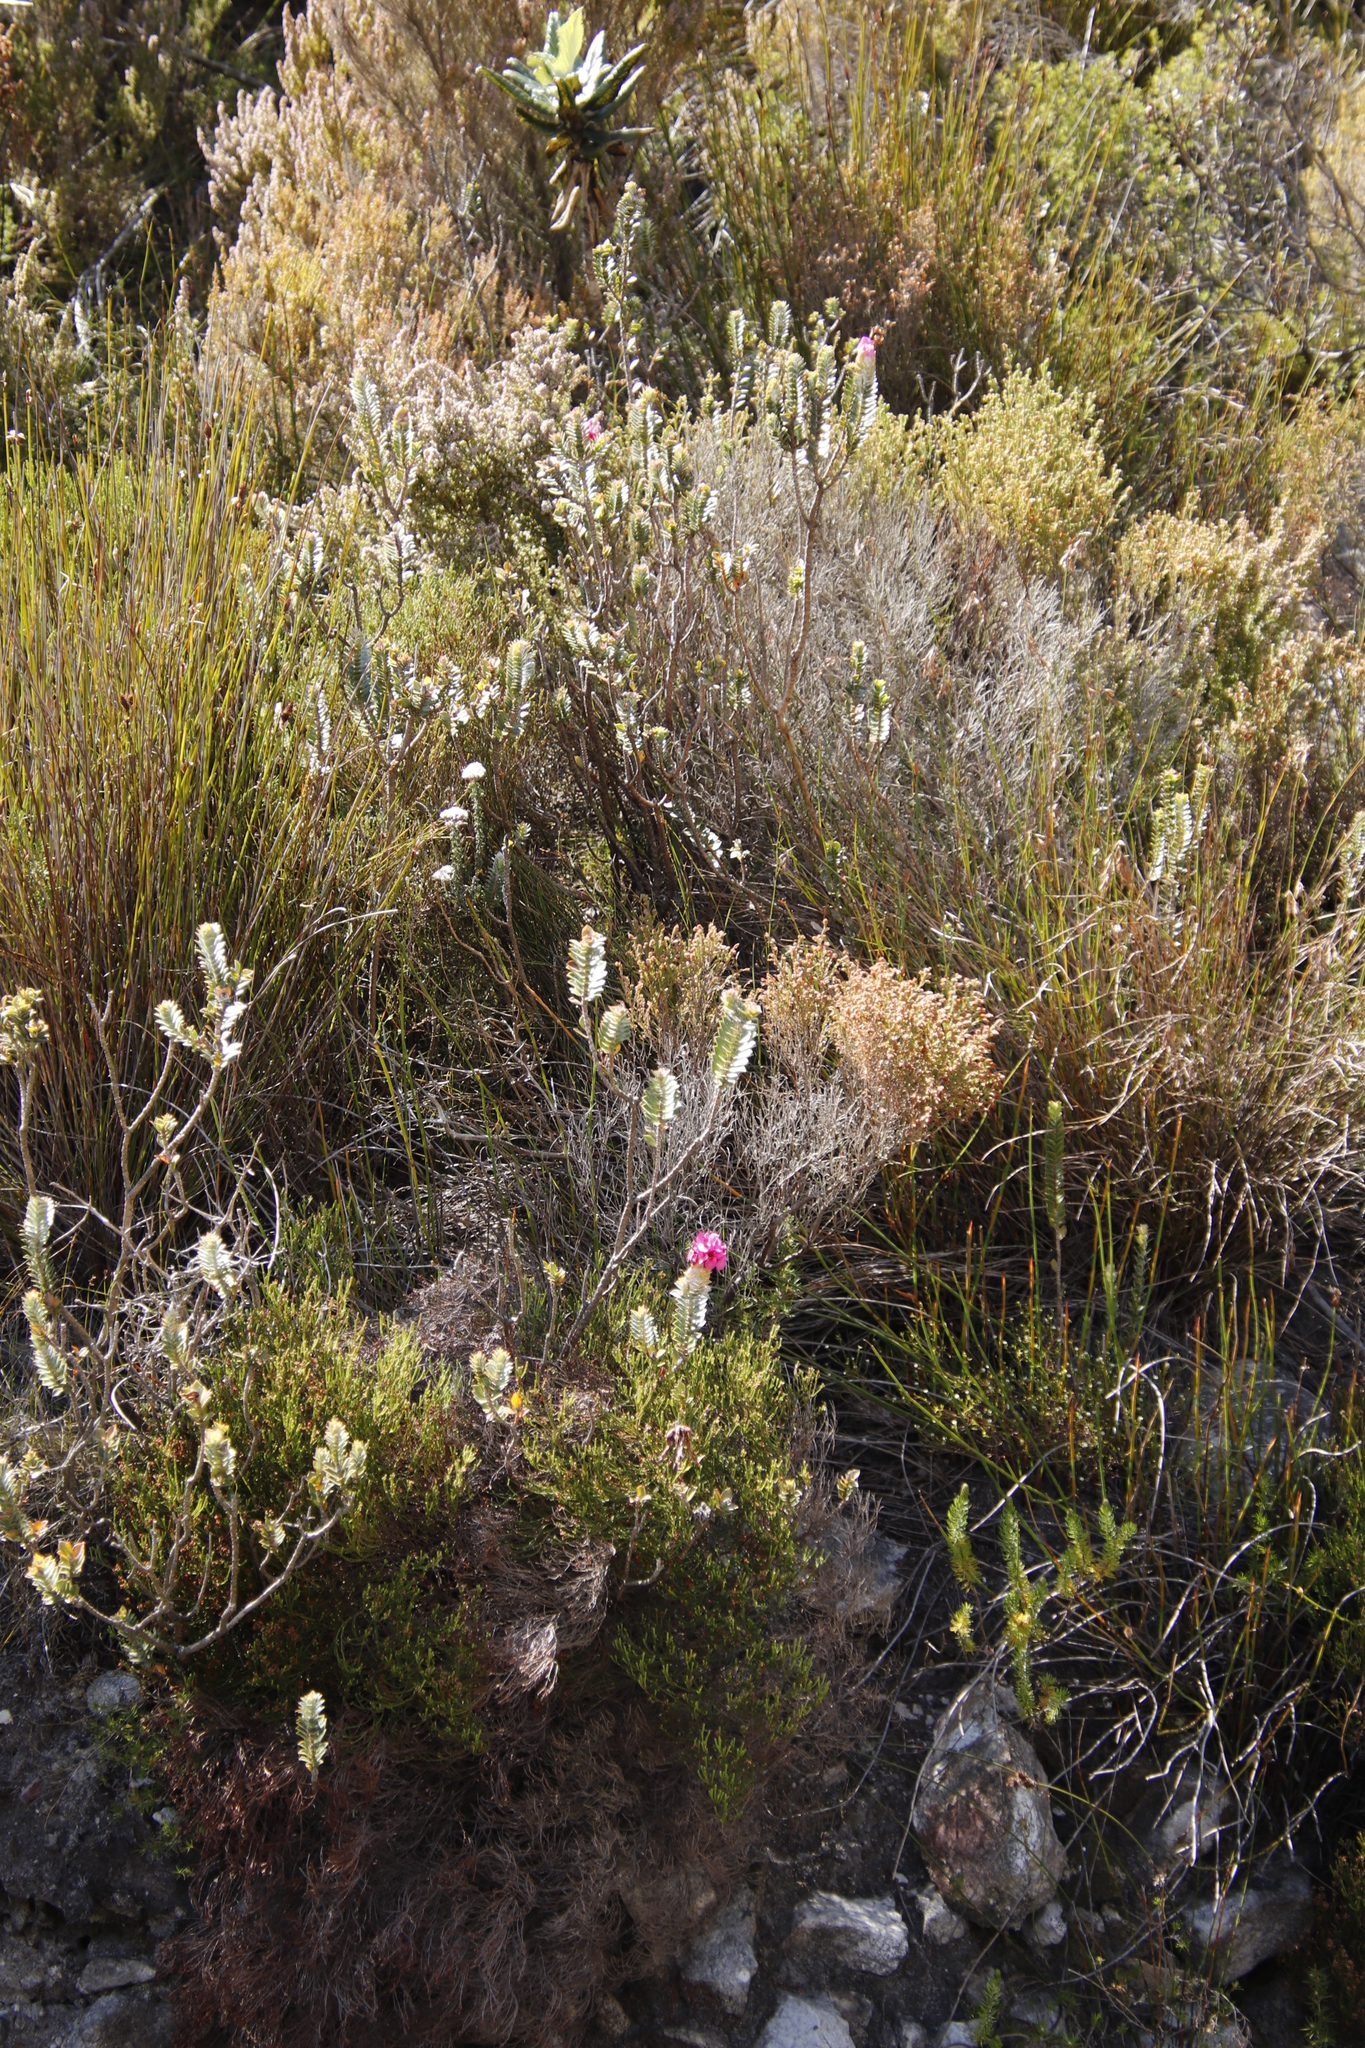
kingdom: Plantae
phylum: Tracheophyta
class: Magnoliopsida
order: Myrtales
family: Penaeaceae
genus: Saltera
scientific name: Saltera sarcocolla
